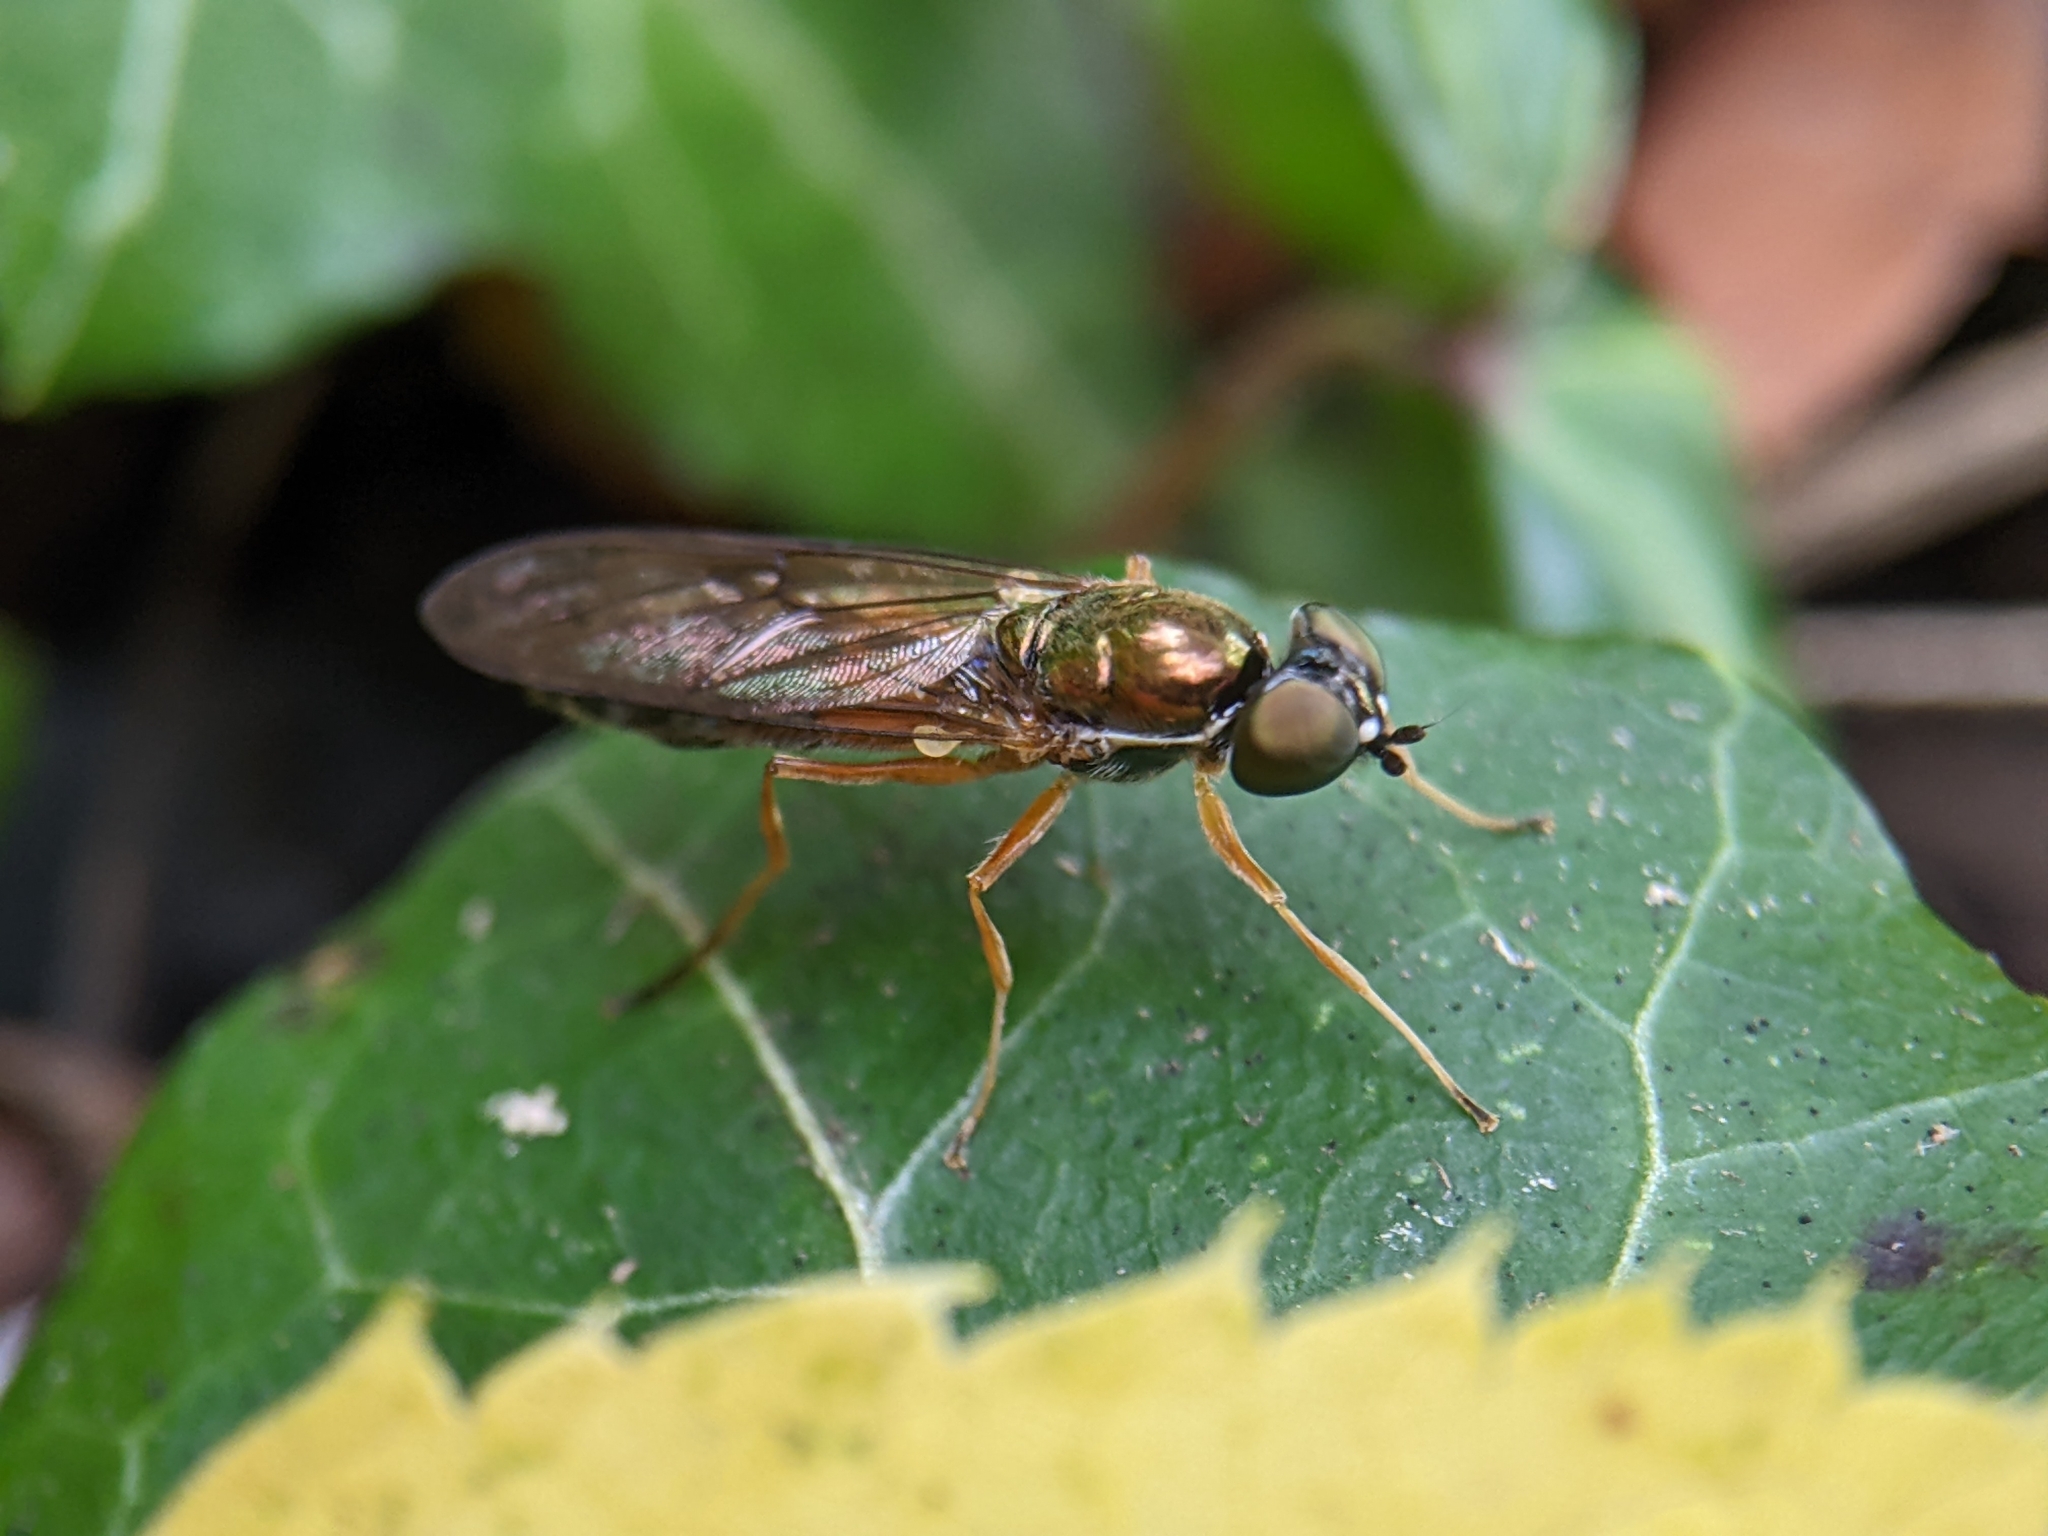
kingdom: Animalia
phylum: Arthropoda
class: Insecta
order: Diptera
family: Stratiomyidae
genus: Sargus
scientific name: Sargus bipunctatus
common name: Twin-spot centurion
